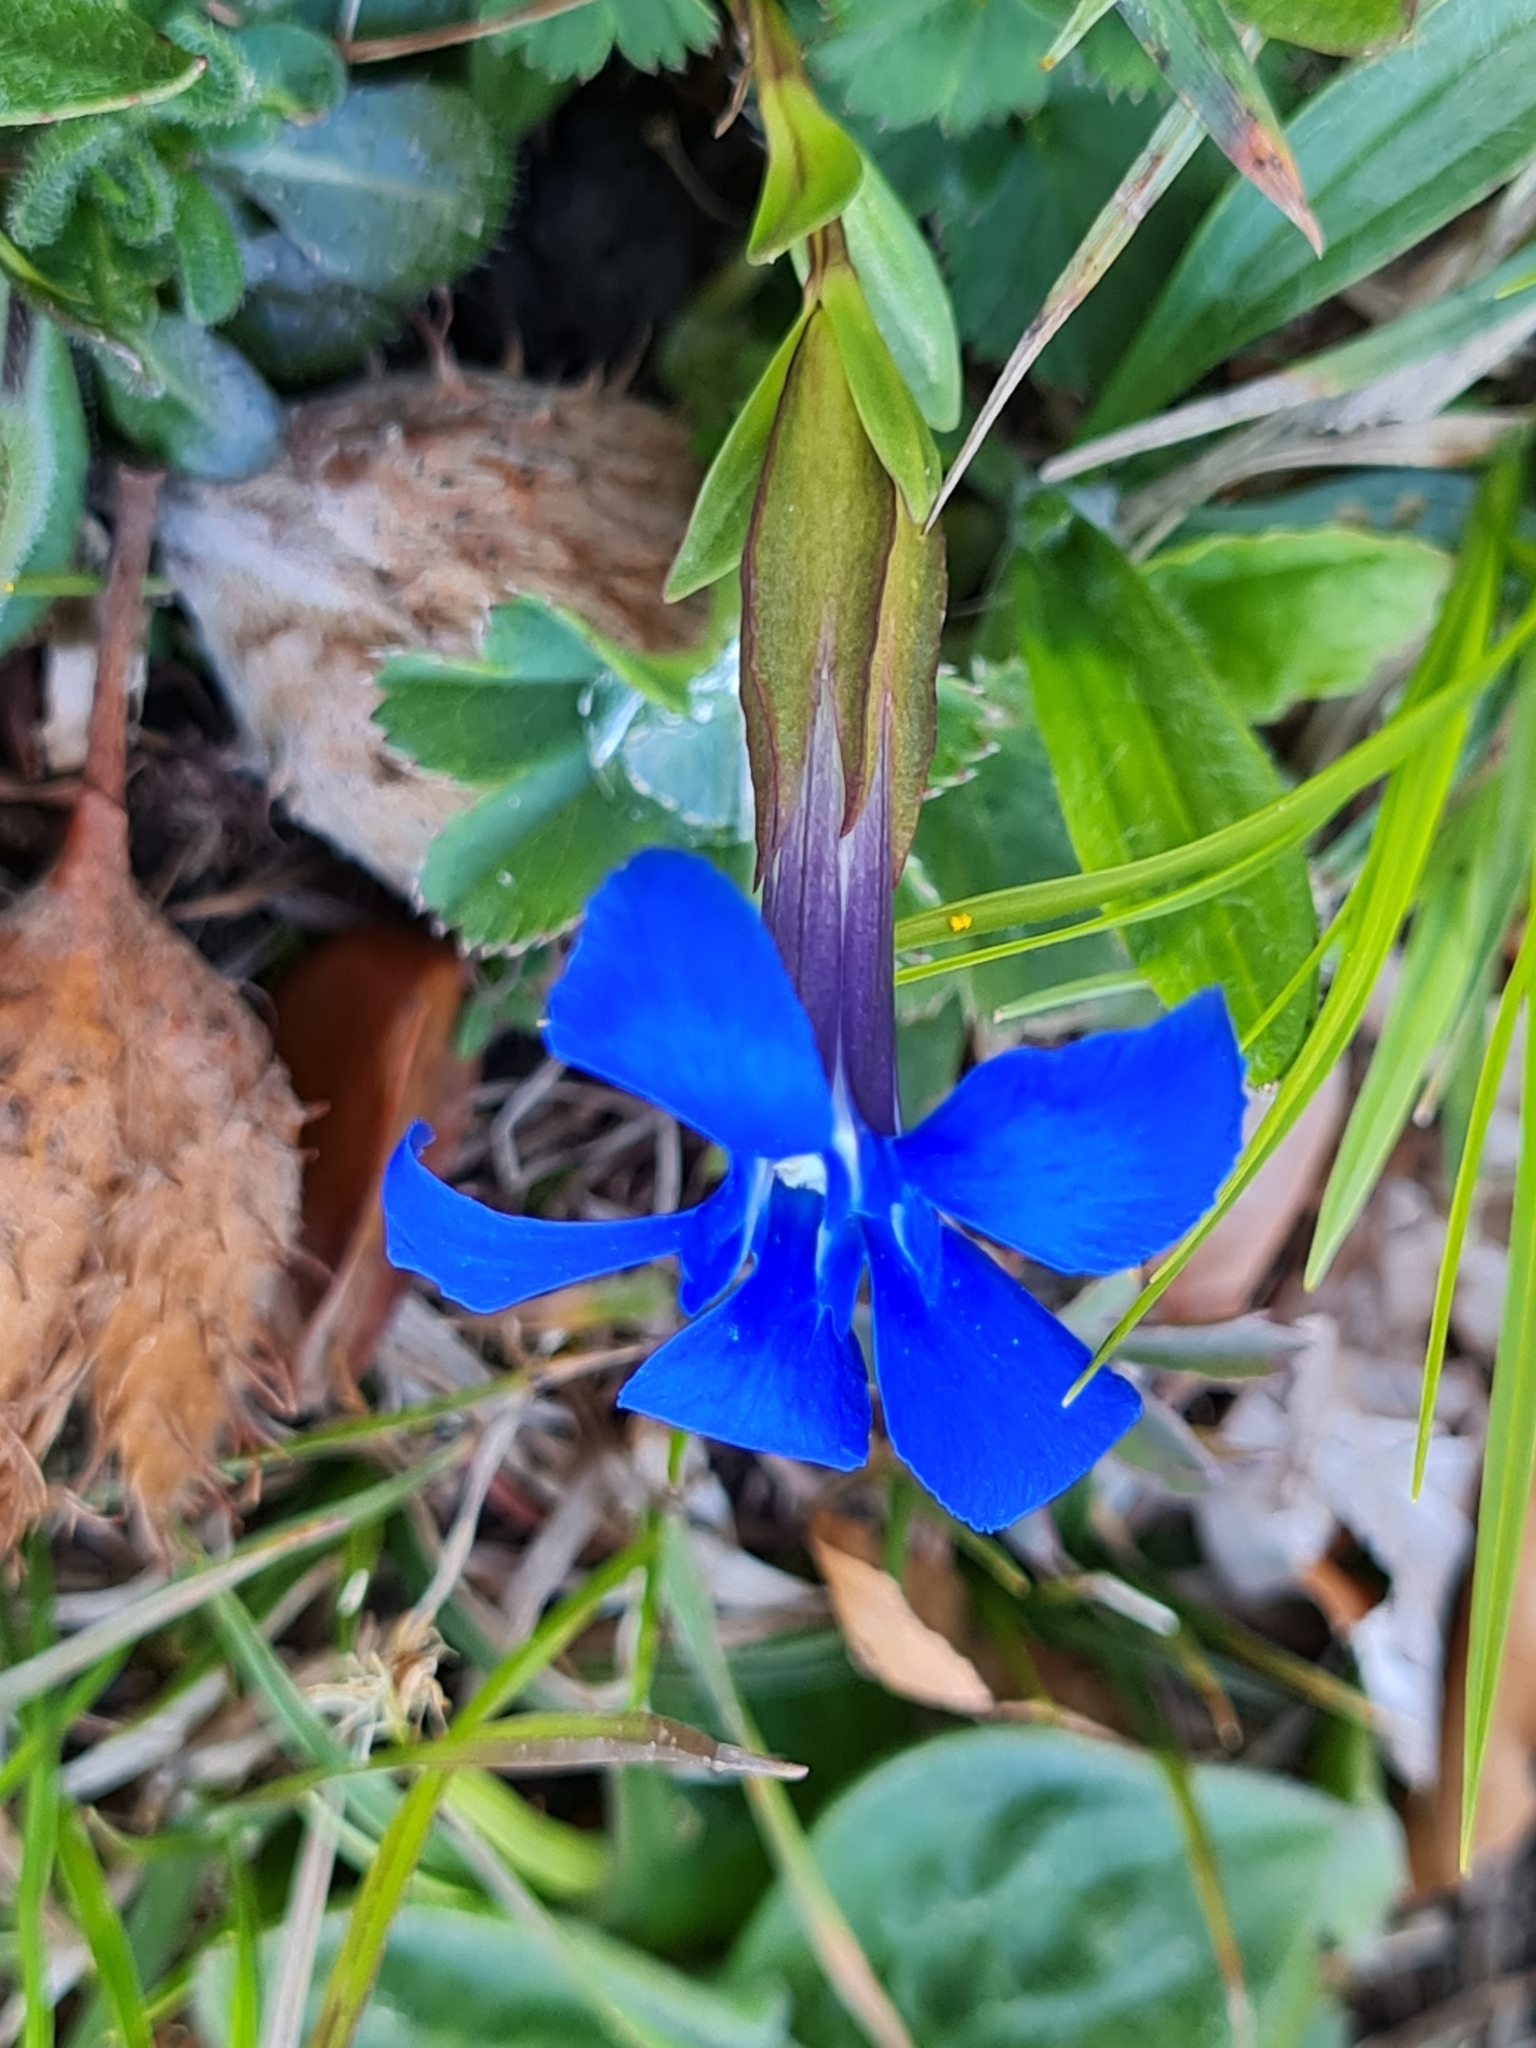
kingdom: Plantae
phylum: Tracheophyta
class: Magnoliopsida
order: Gentianales
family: Gentianaceae
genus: Gentiana
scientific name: Gentiana verna
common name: Spring gentian
